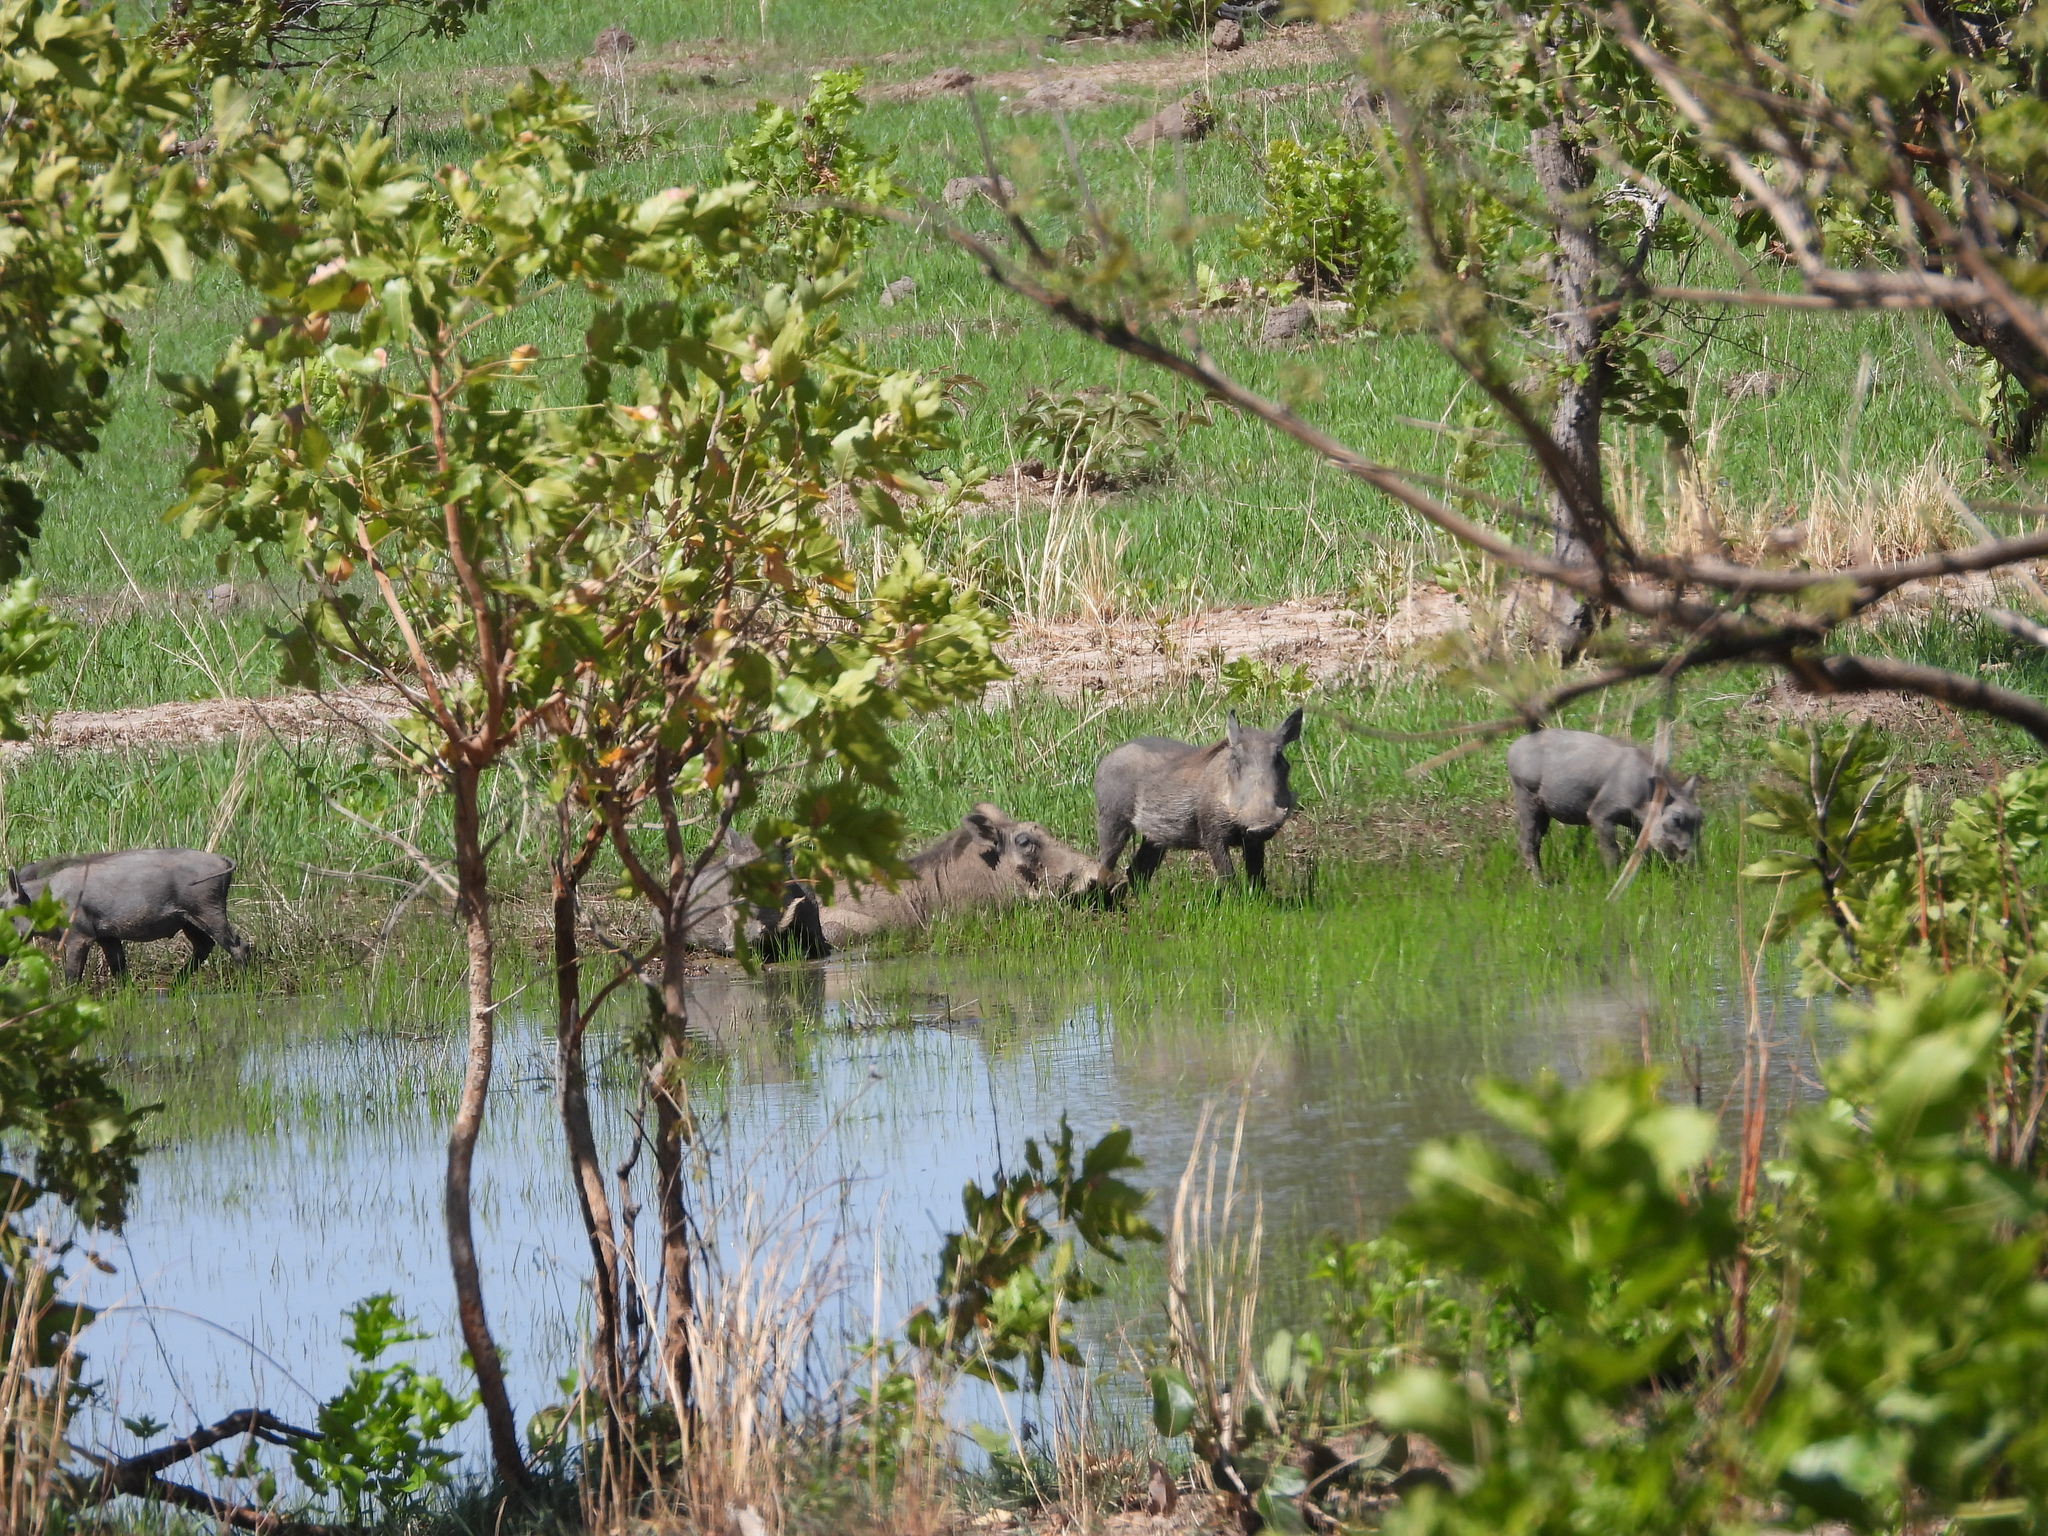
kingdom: Animalia
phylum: Chordata
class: Mammalia
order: Artiodactyla
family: Suidae
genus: Phacochoerus
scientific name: Phacochoerus africanus
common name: Common warthog
